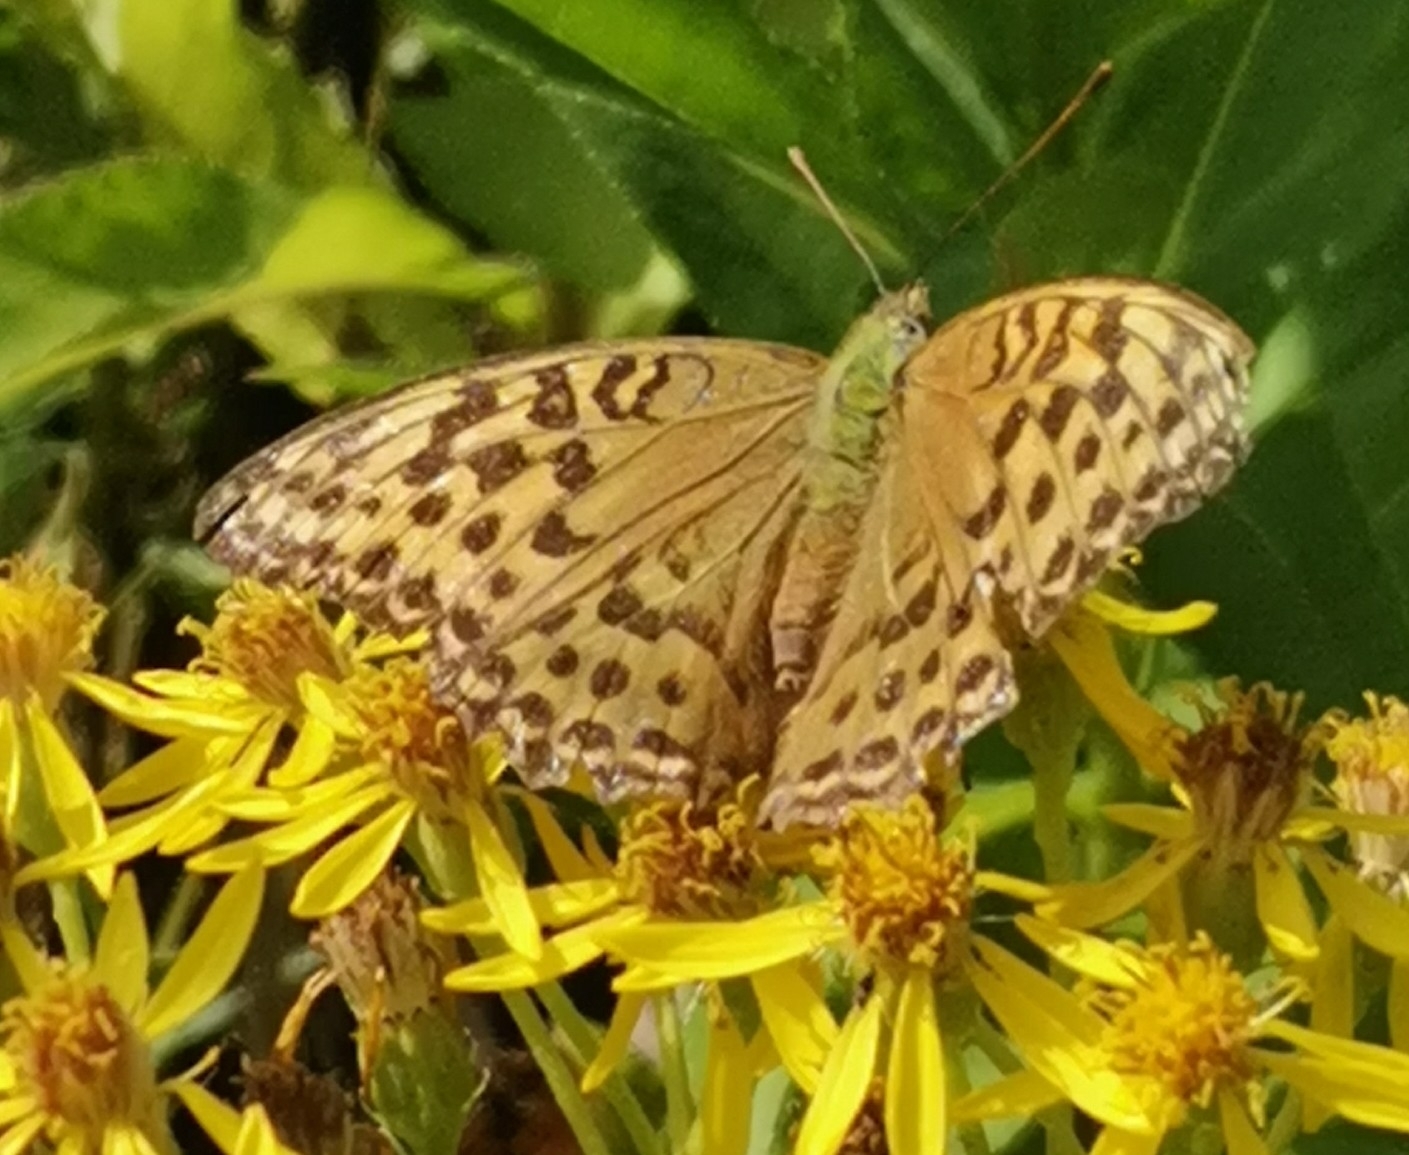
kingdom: Animalia
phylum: Arthropoda
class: Insecta
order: Lepidoptera
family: Nymphalidae
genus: Argynnis
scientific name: Argynnis paphia
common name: Silver-washed fritillary
